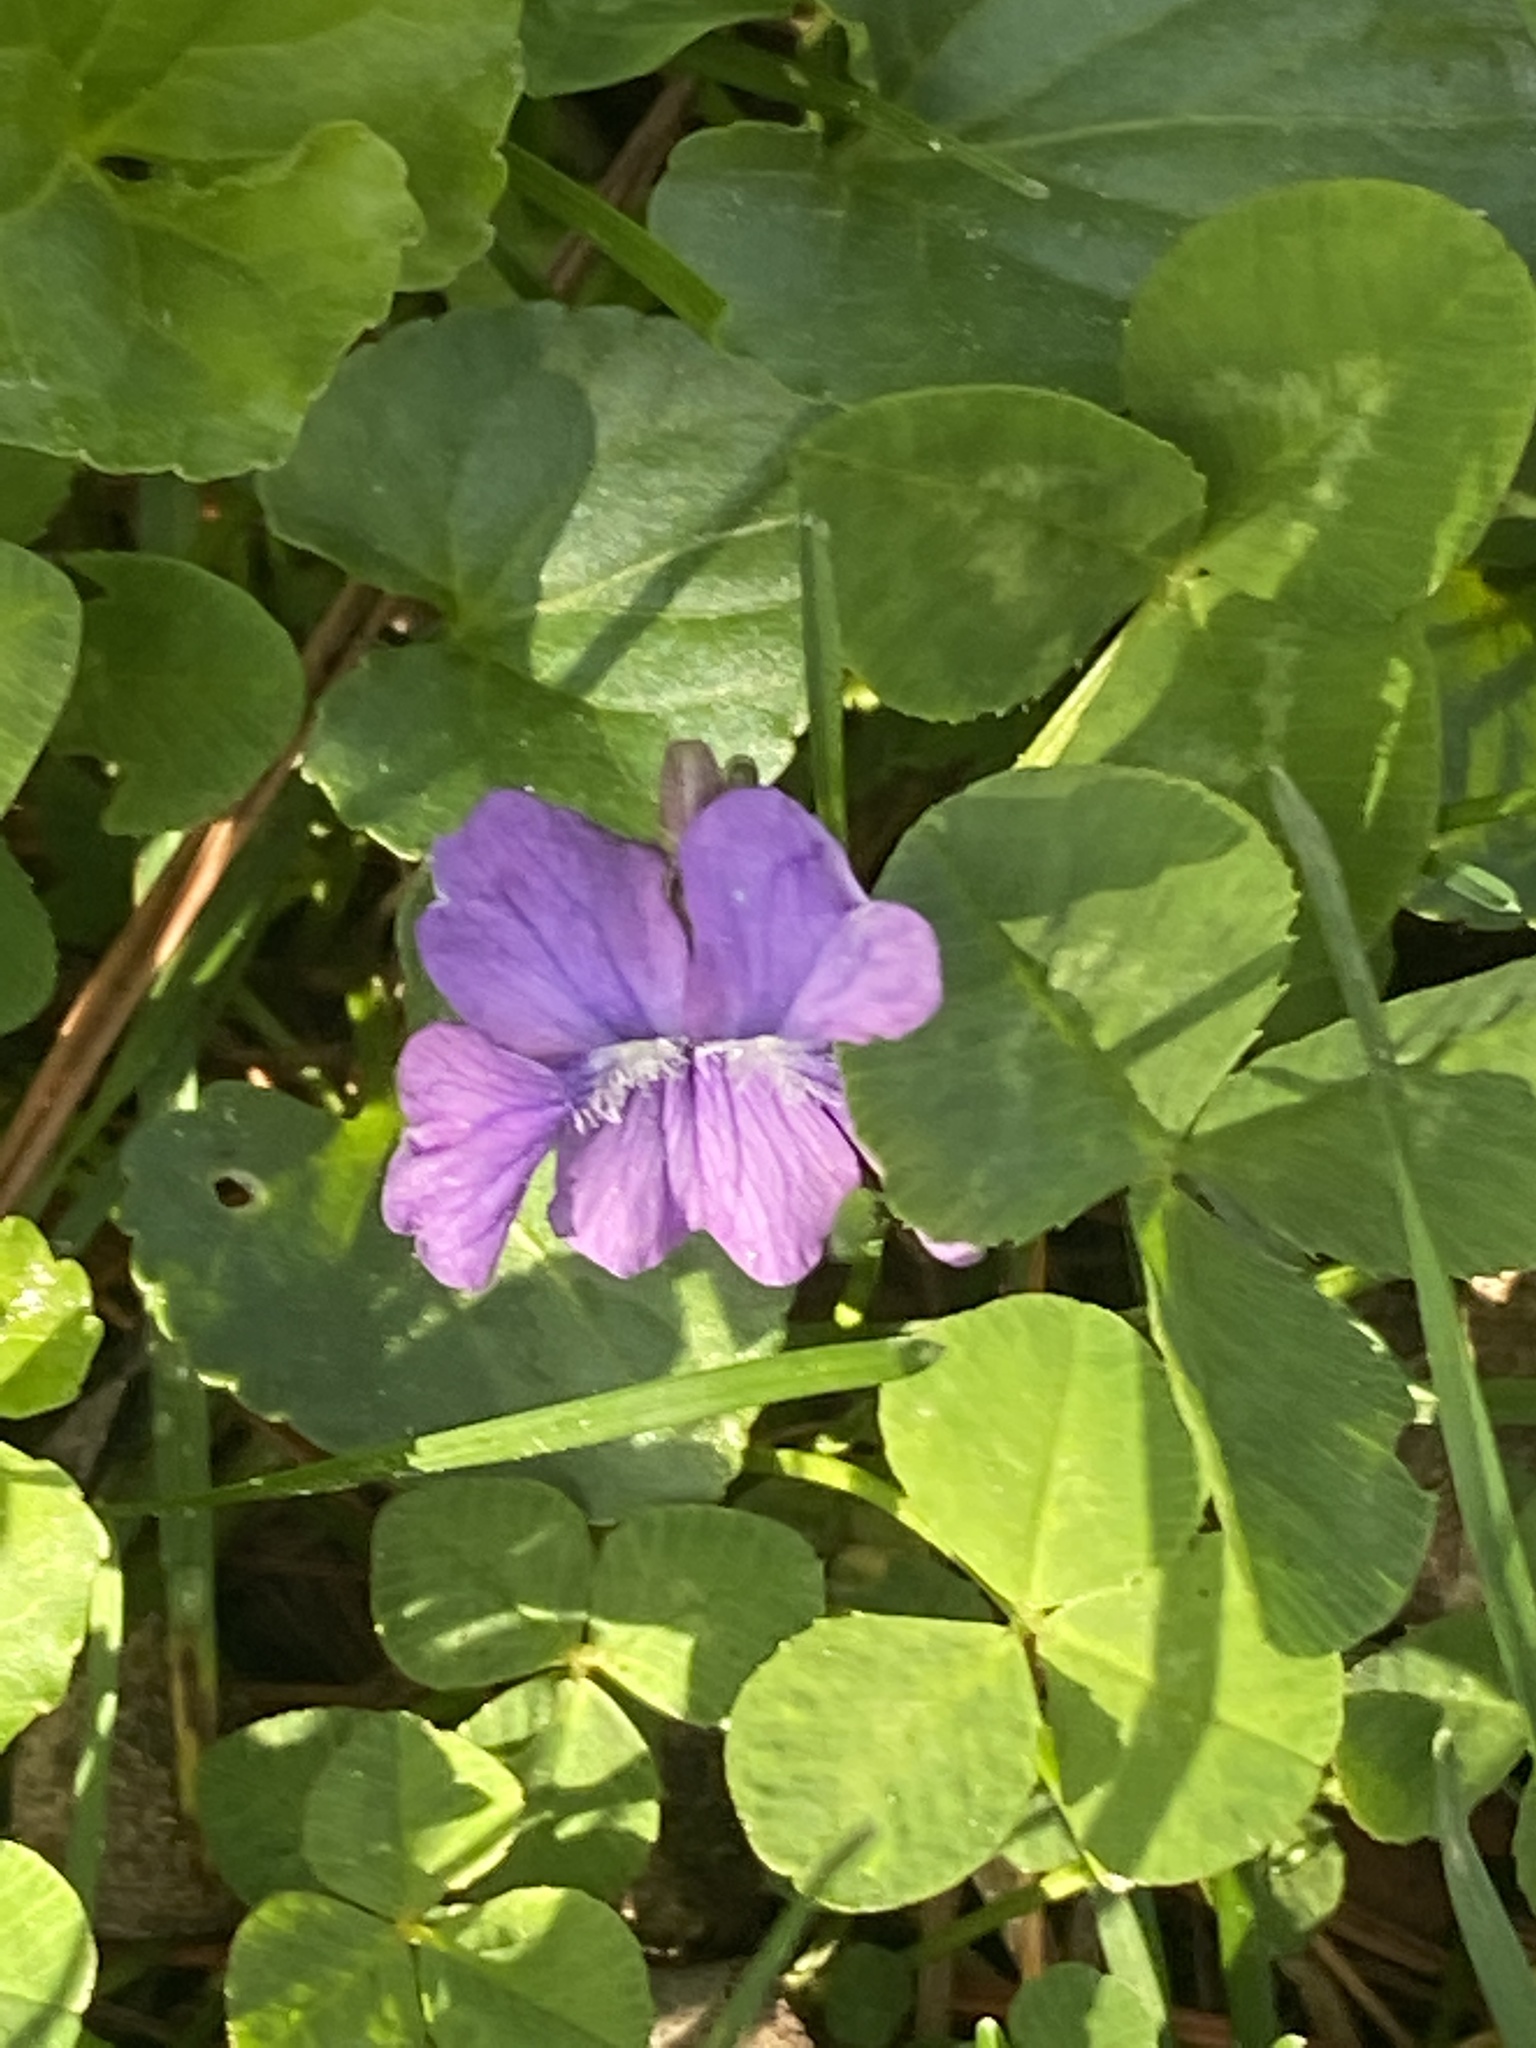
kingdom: Plantae
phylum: Tracheophyta
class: Magnoliopsida
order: Malpighiales
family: Violaceae
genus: Viola
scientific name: Viola sororia
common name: Dooryard violet
